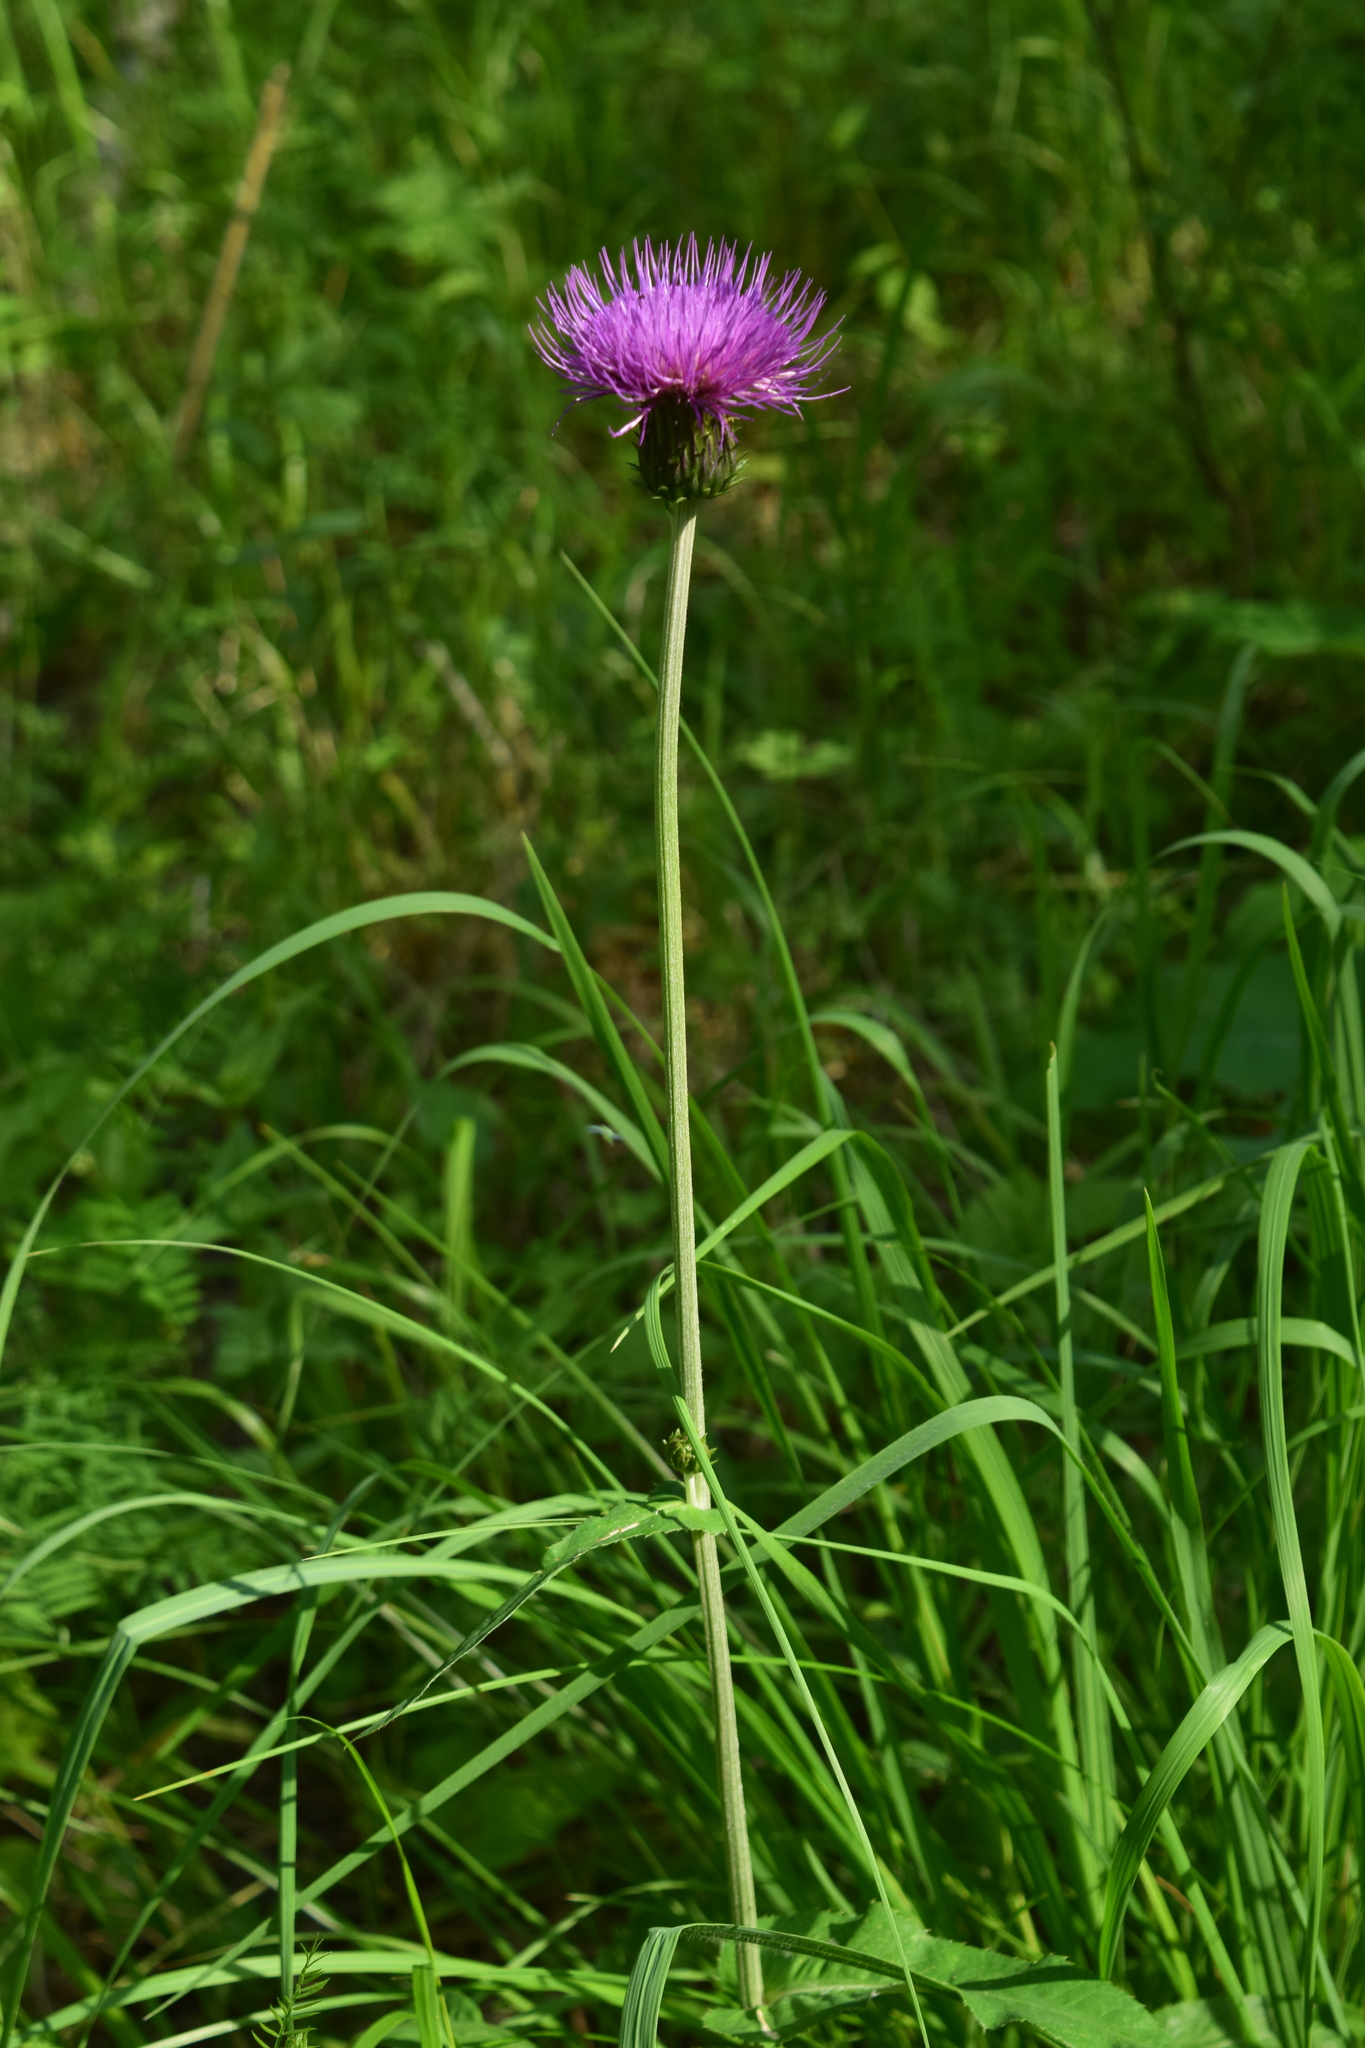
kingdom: Plantae
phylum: Tracheophyta
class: Magnoliopsida
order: Asterales
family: Asteraceae
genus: Cirsium
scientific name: Cirsium heterophyllum
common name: Melancholy thistle
